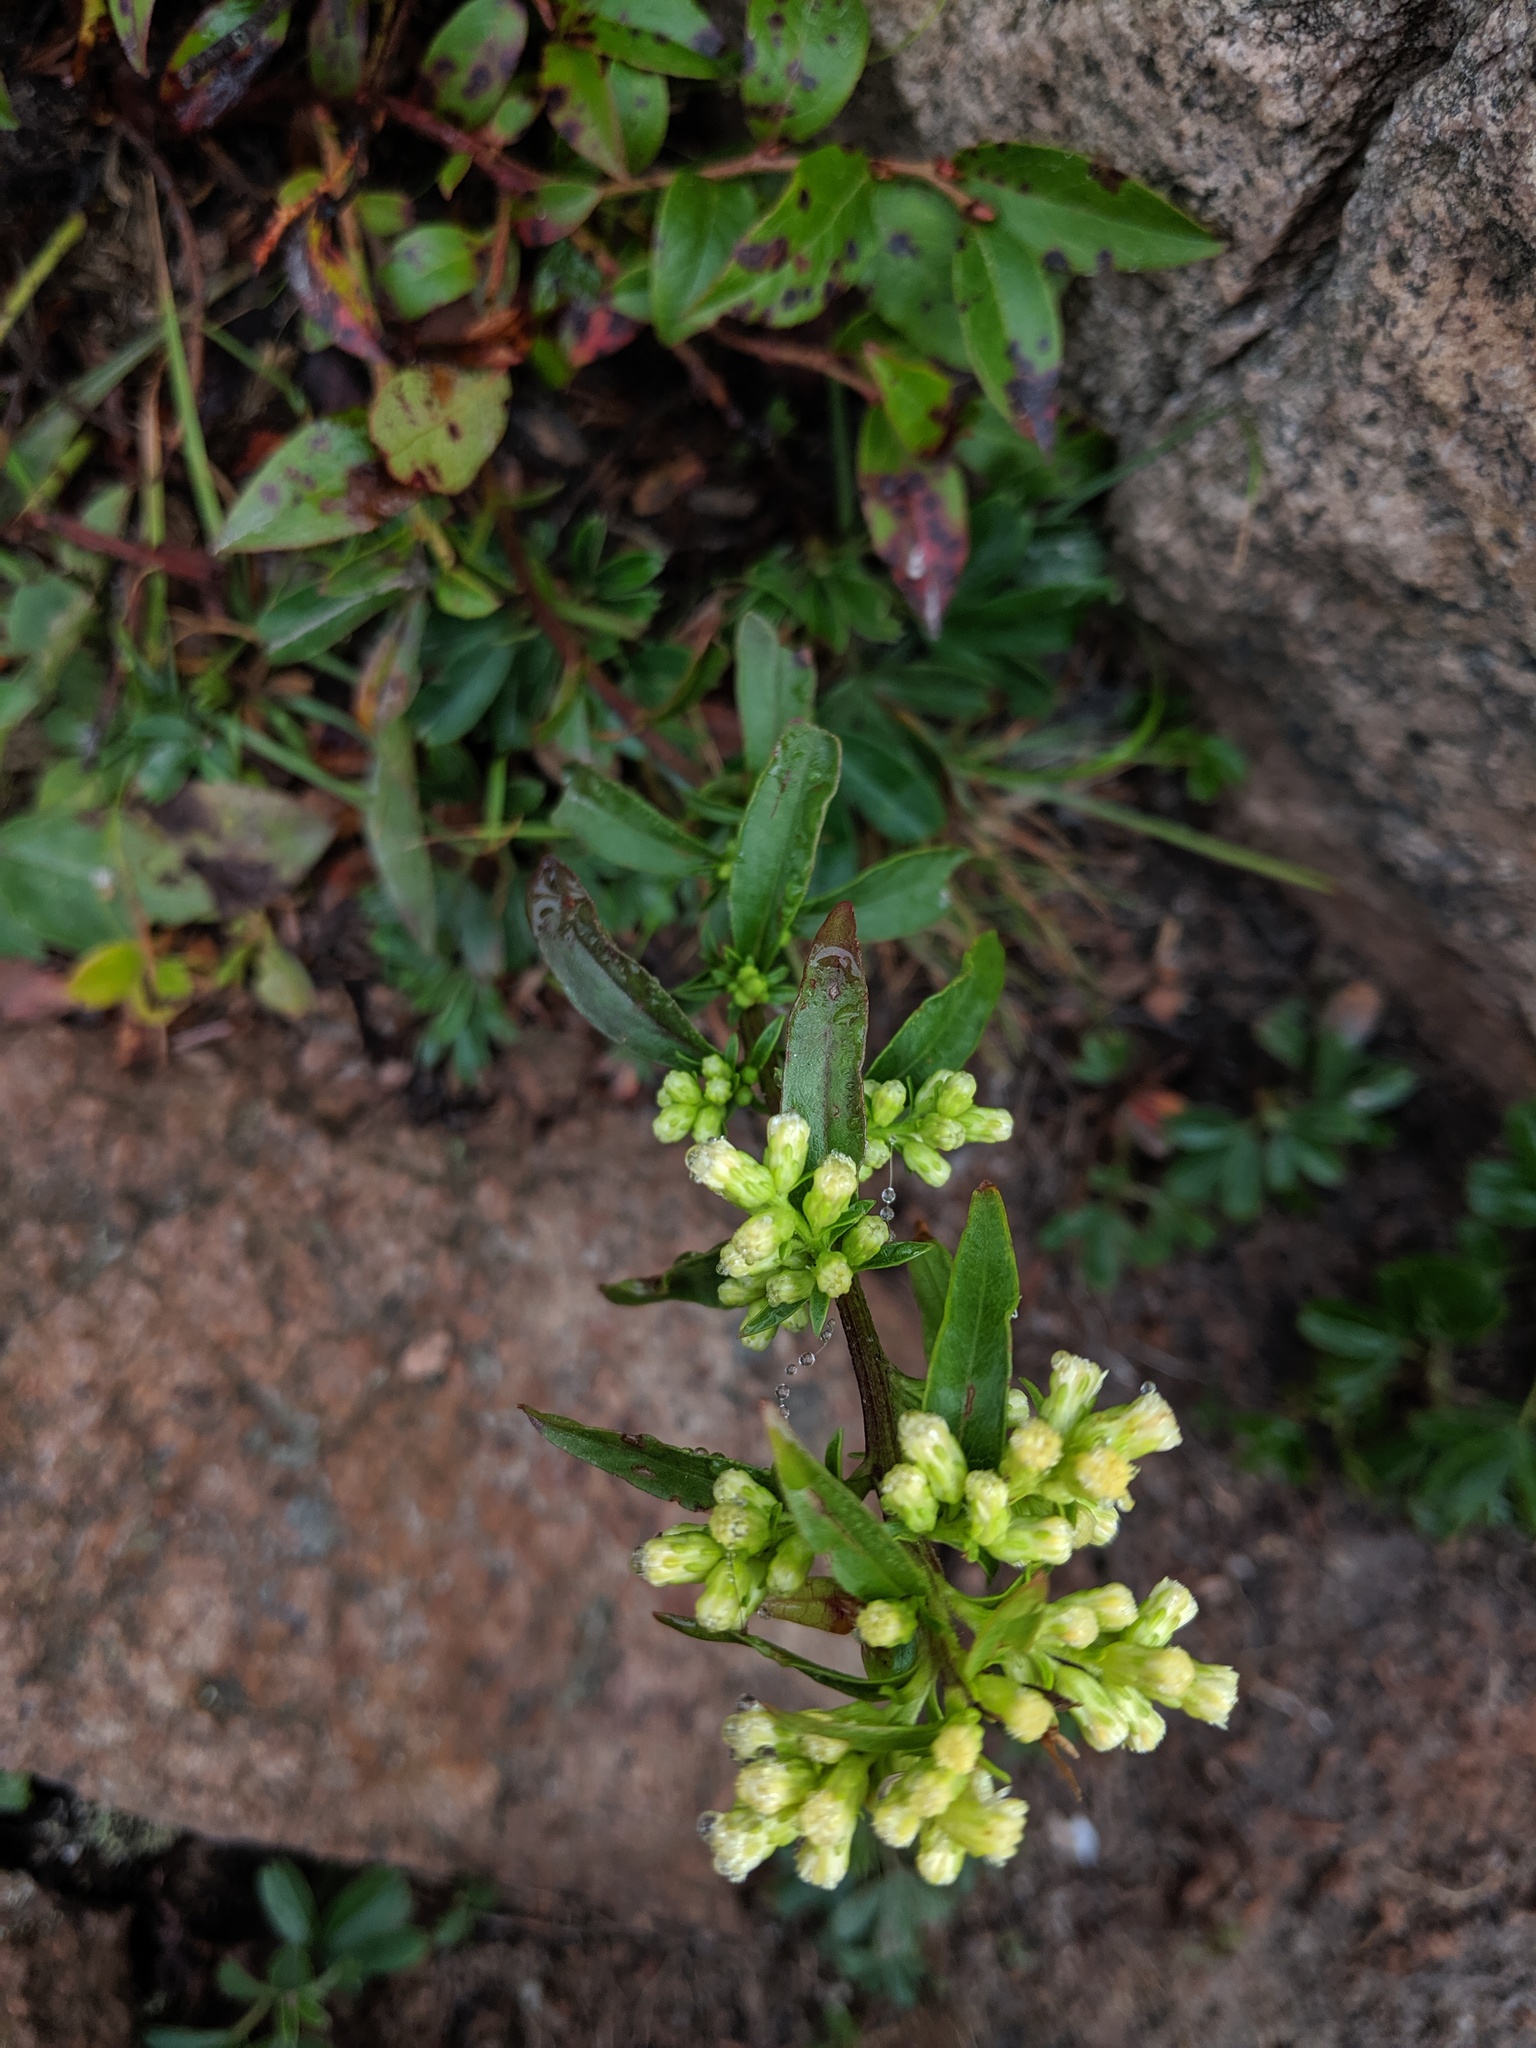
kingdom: Plantae
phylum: Tracheophyta
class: Magnoliopsida
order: Asterales
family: Asteraceae
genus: Solidago
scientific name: Solidago bicolor
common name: Silverrod
